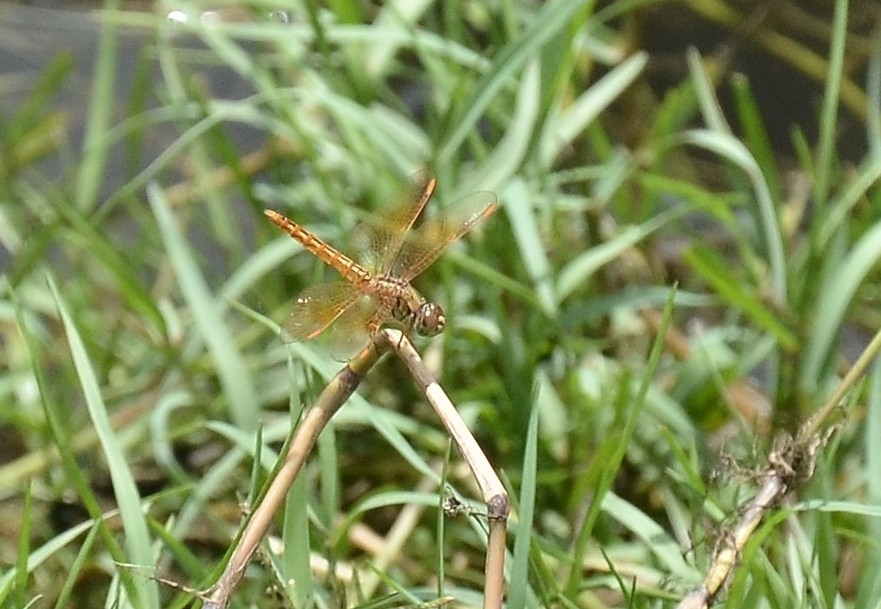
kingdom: Animalia
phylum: Arthropoda
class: Insecta
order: Odonata
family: Libellulidae
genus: Brachythemis
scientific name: Brachythemis contaminata
